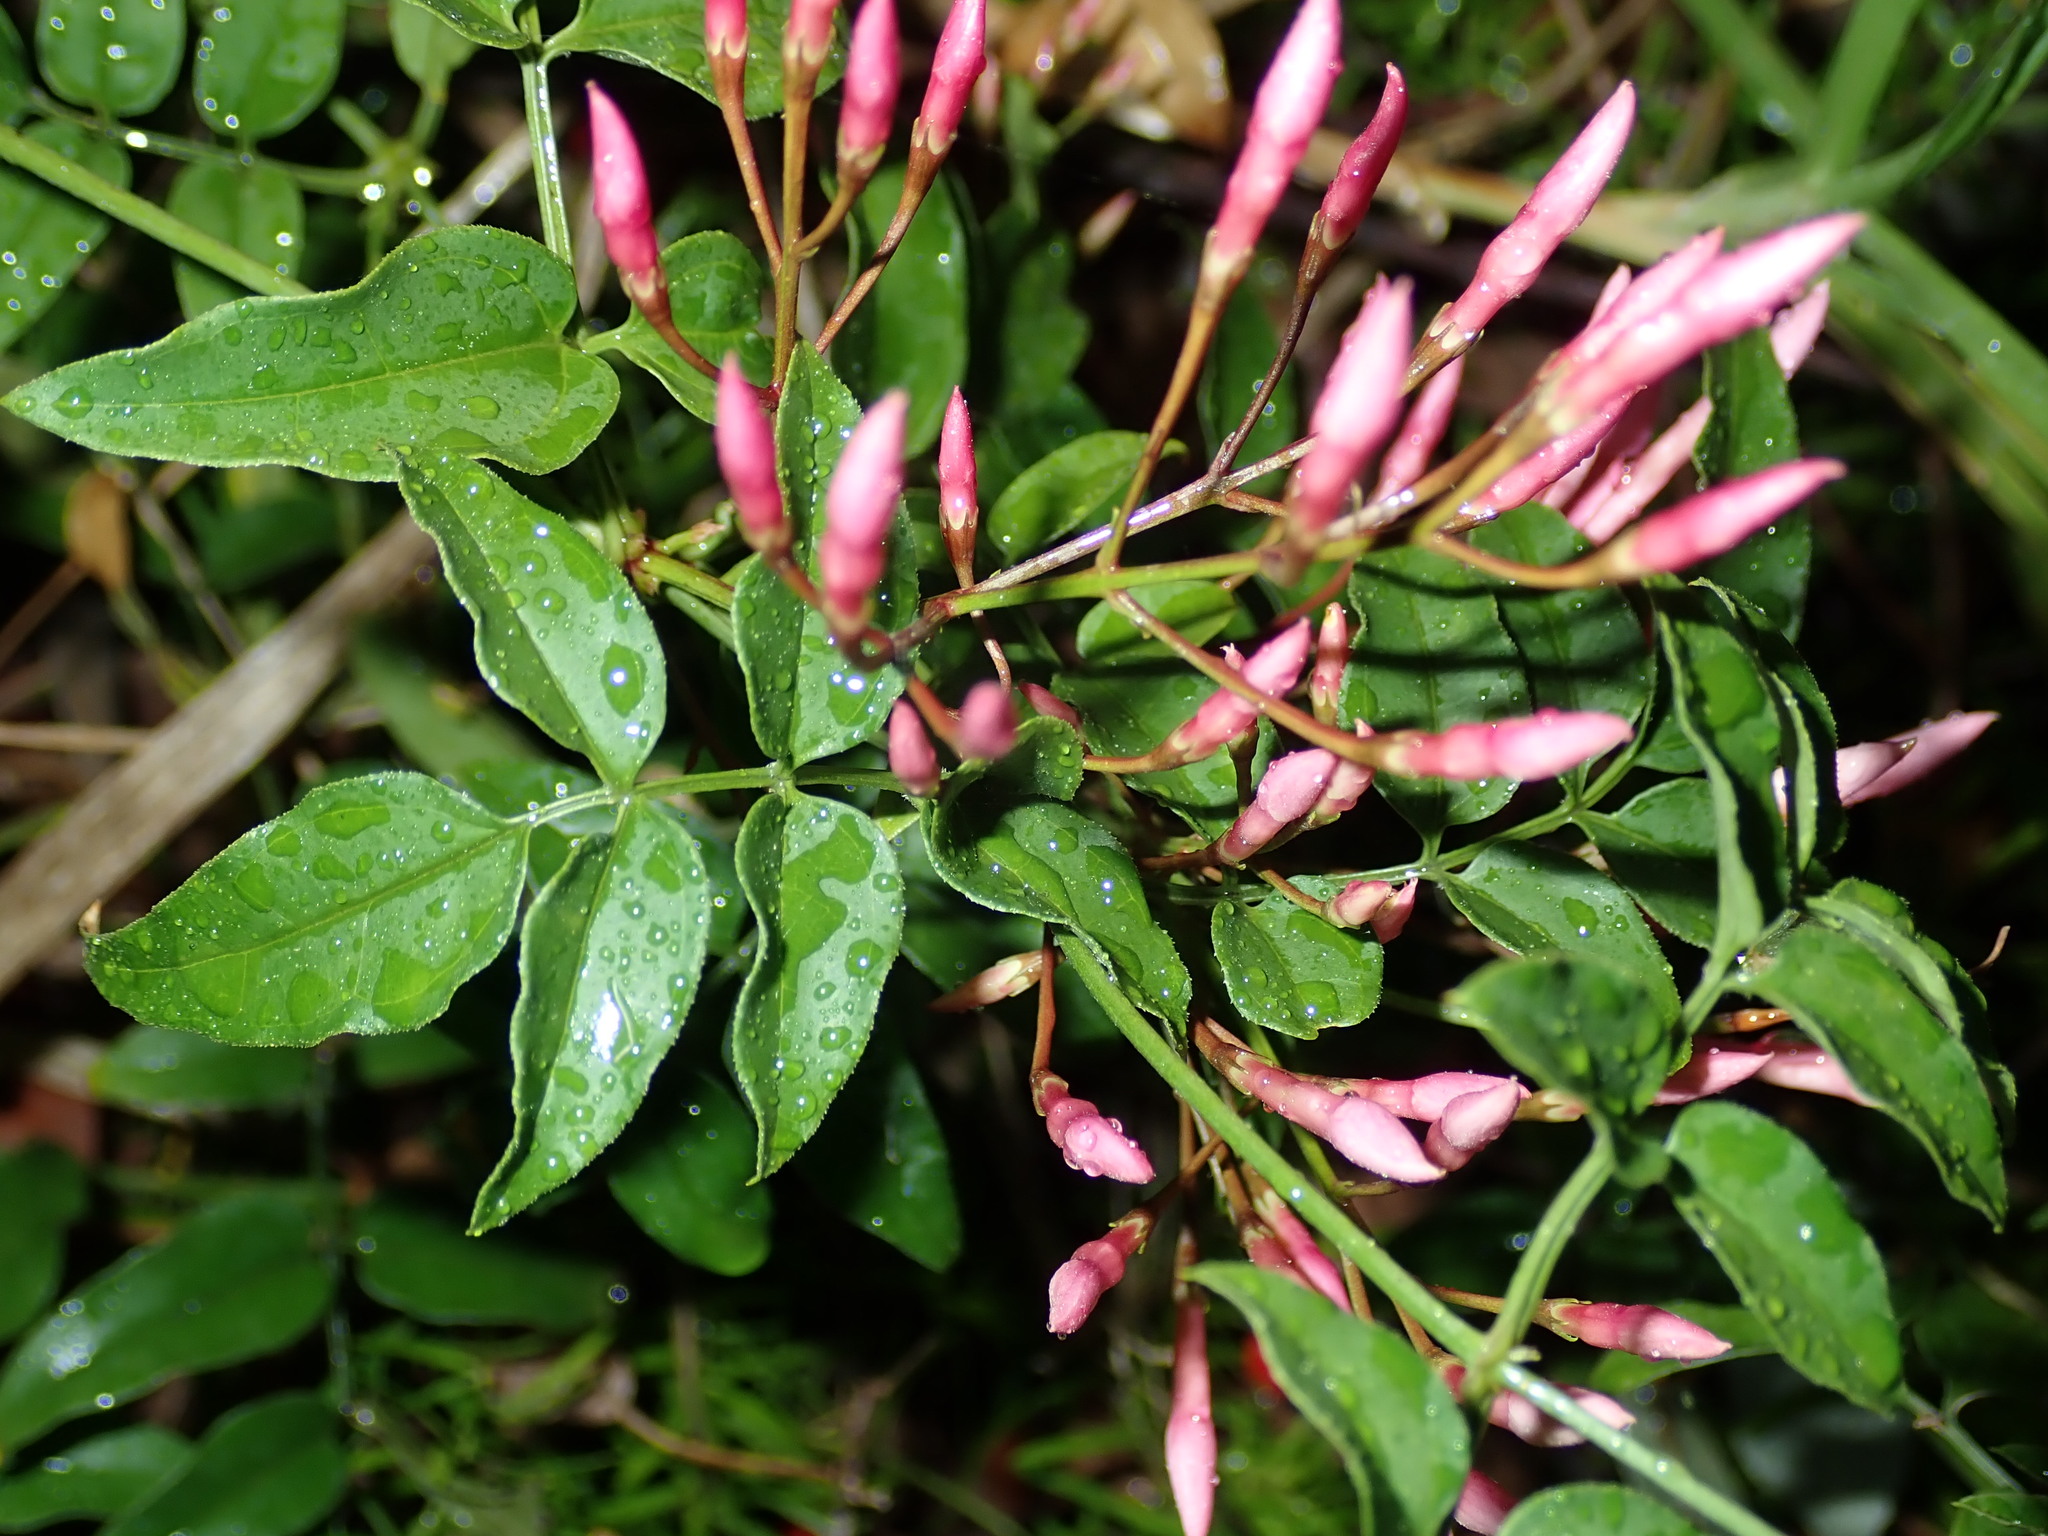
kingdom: Plantae
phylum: Tracheophyta
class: Magnoliopsida
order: Lamiales
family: Oleaceae
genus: Jasminum
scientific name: Jasminum polyanthum
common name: Pink jasmine
